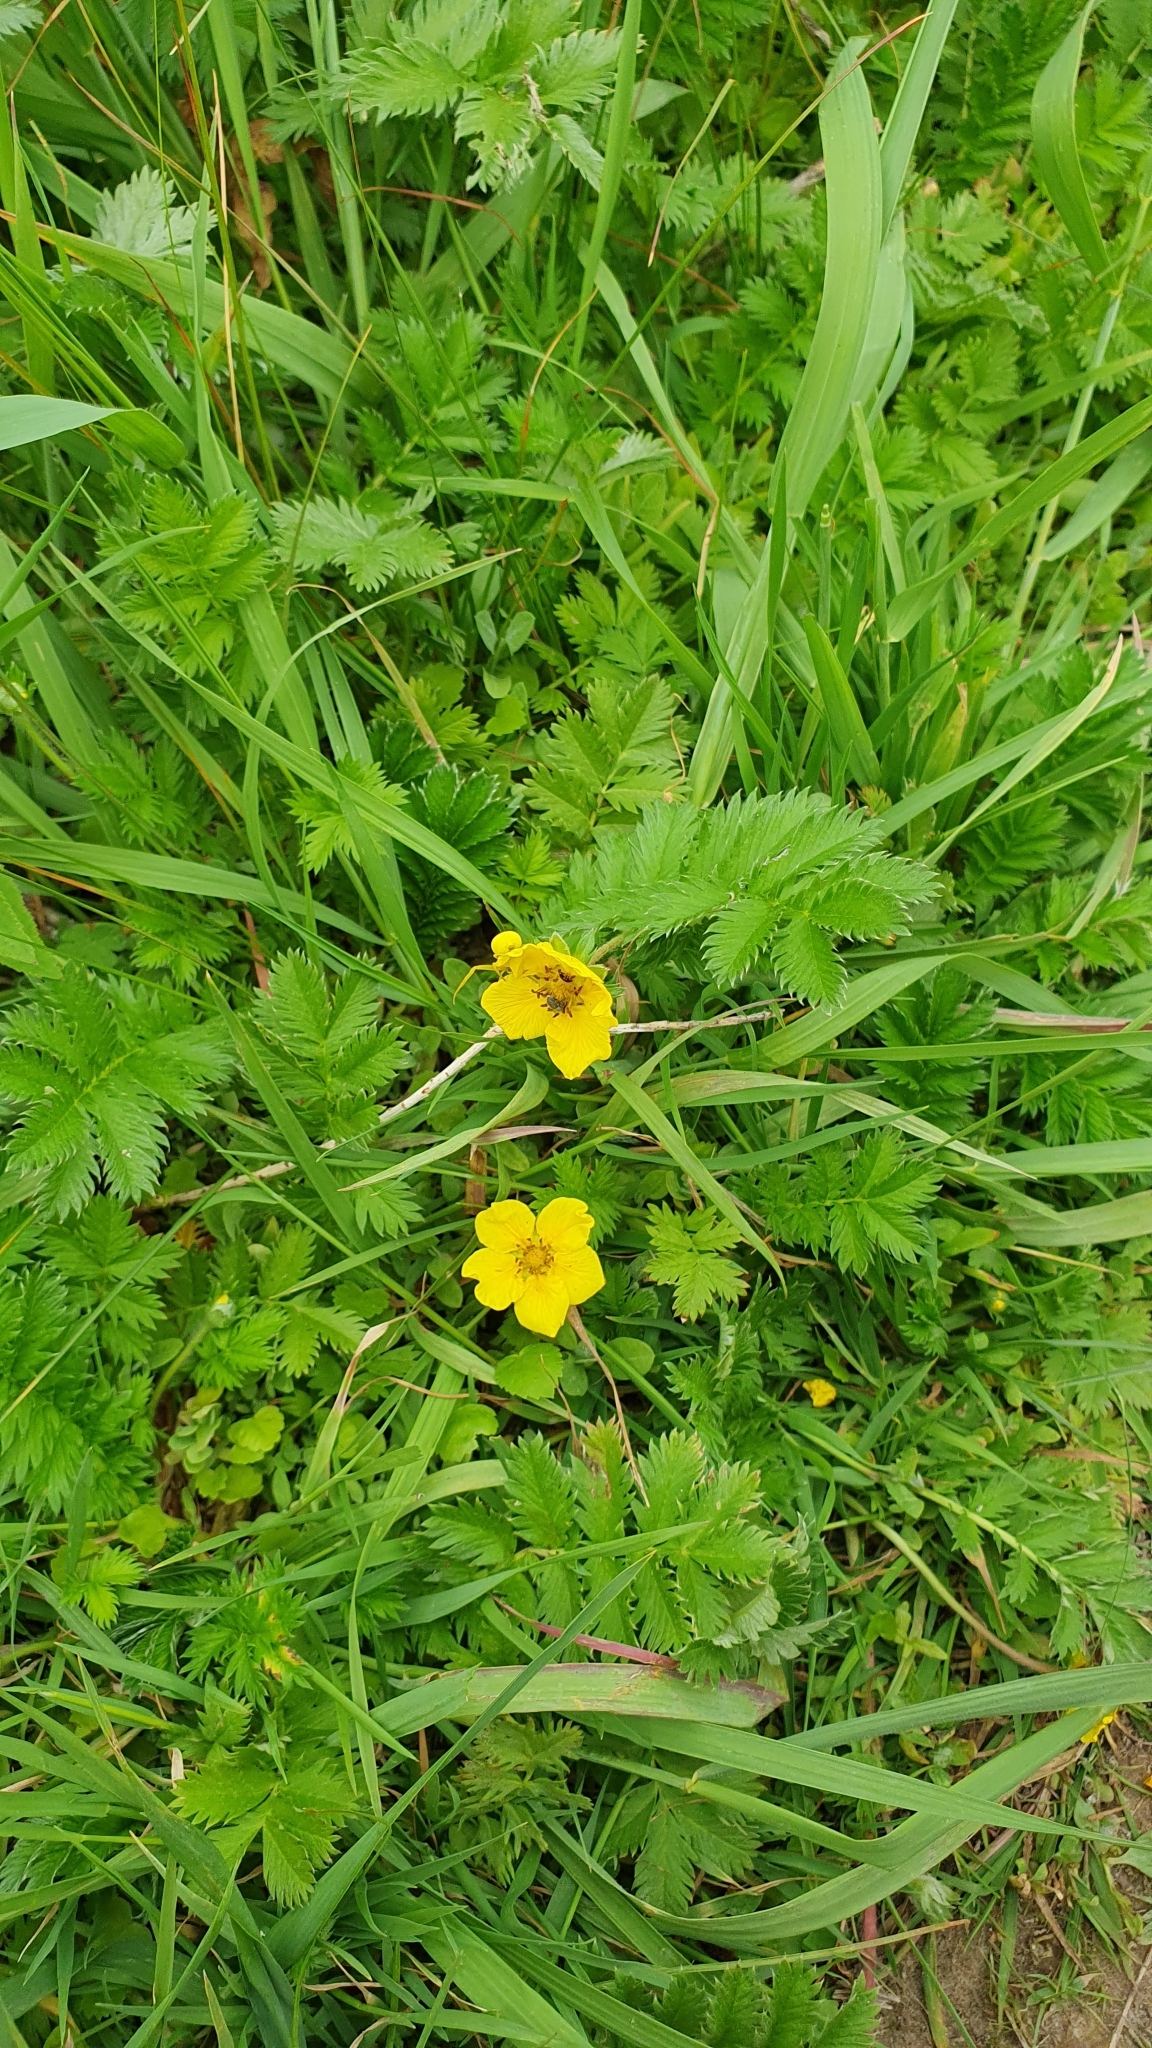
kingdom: Plantae
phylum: Tracheophyta
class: Magnoliopsida
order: Rosales
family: Rosaceae
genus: Argentina
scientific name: Argentina anserina
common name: Common silverweed
